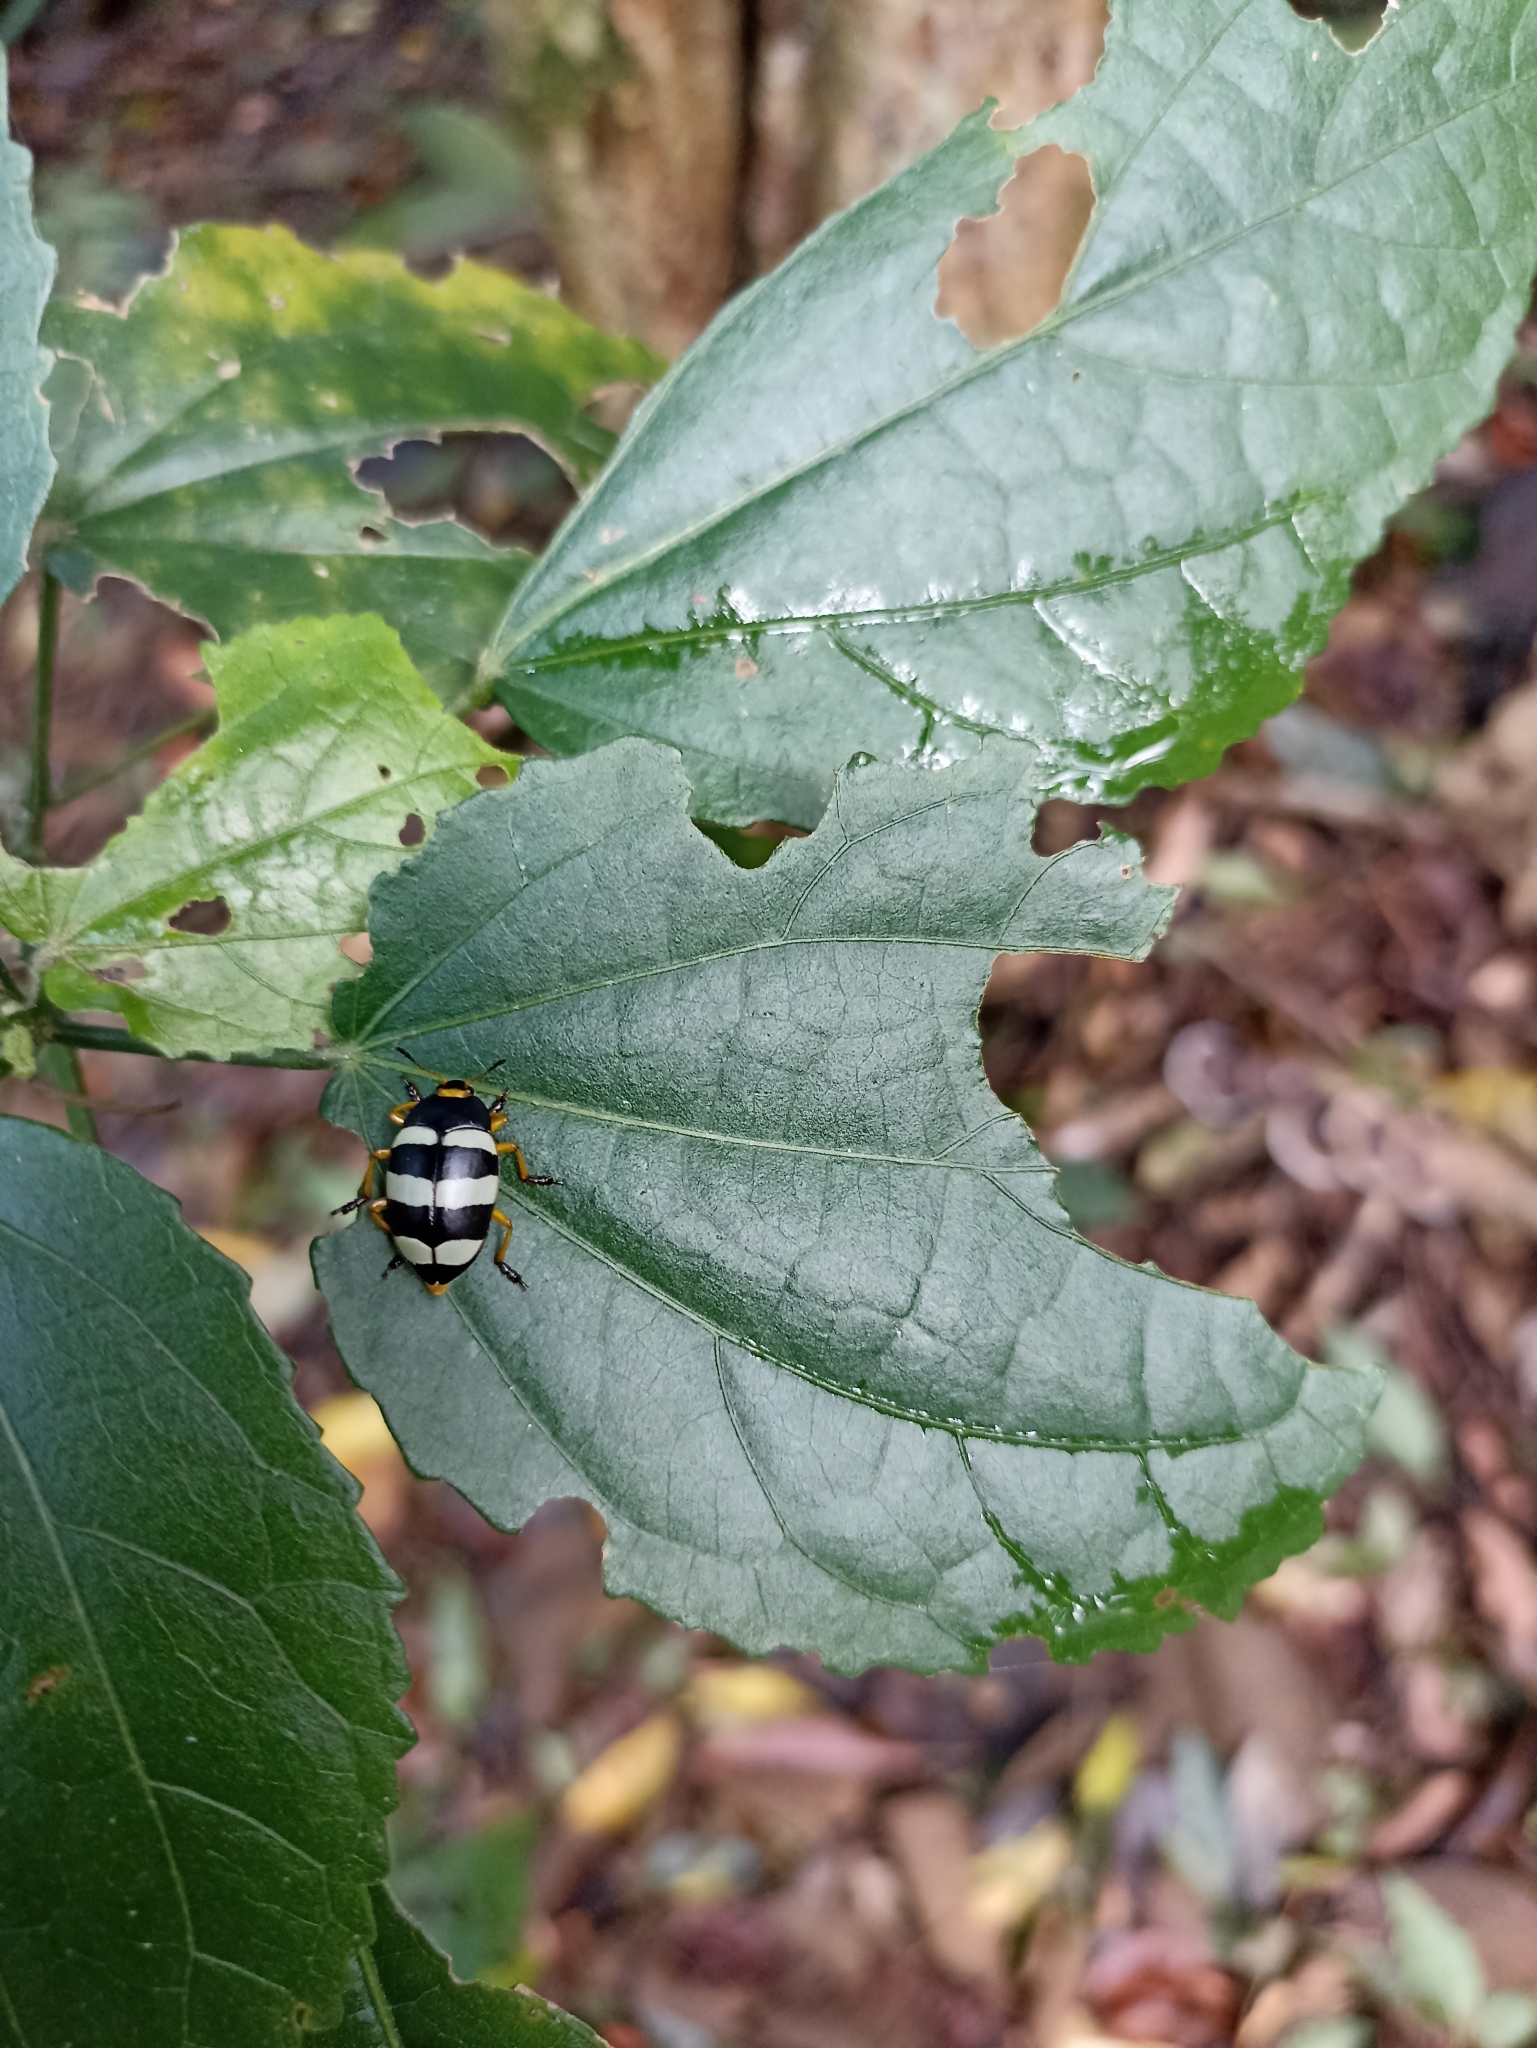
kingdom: Animalia
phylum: Arthropoda
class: Insecta
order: Coleoptera
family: Erotylidae
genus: Iphiclus
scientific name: Iphiclus
